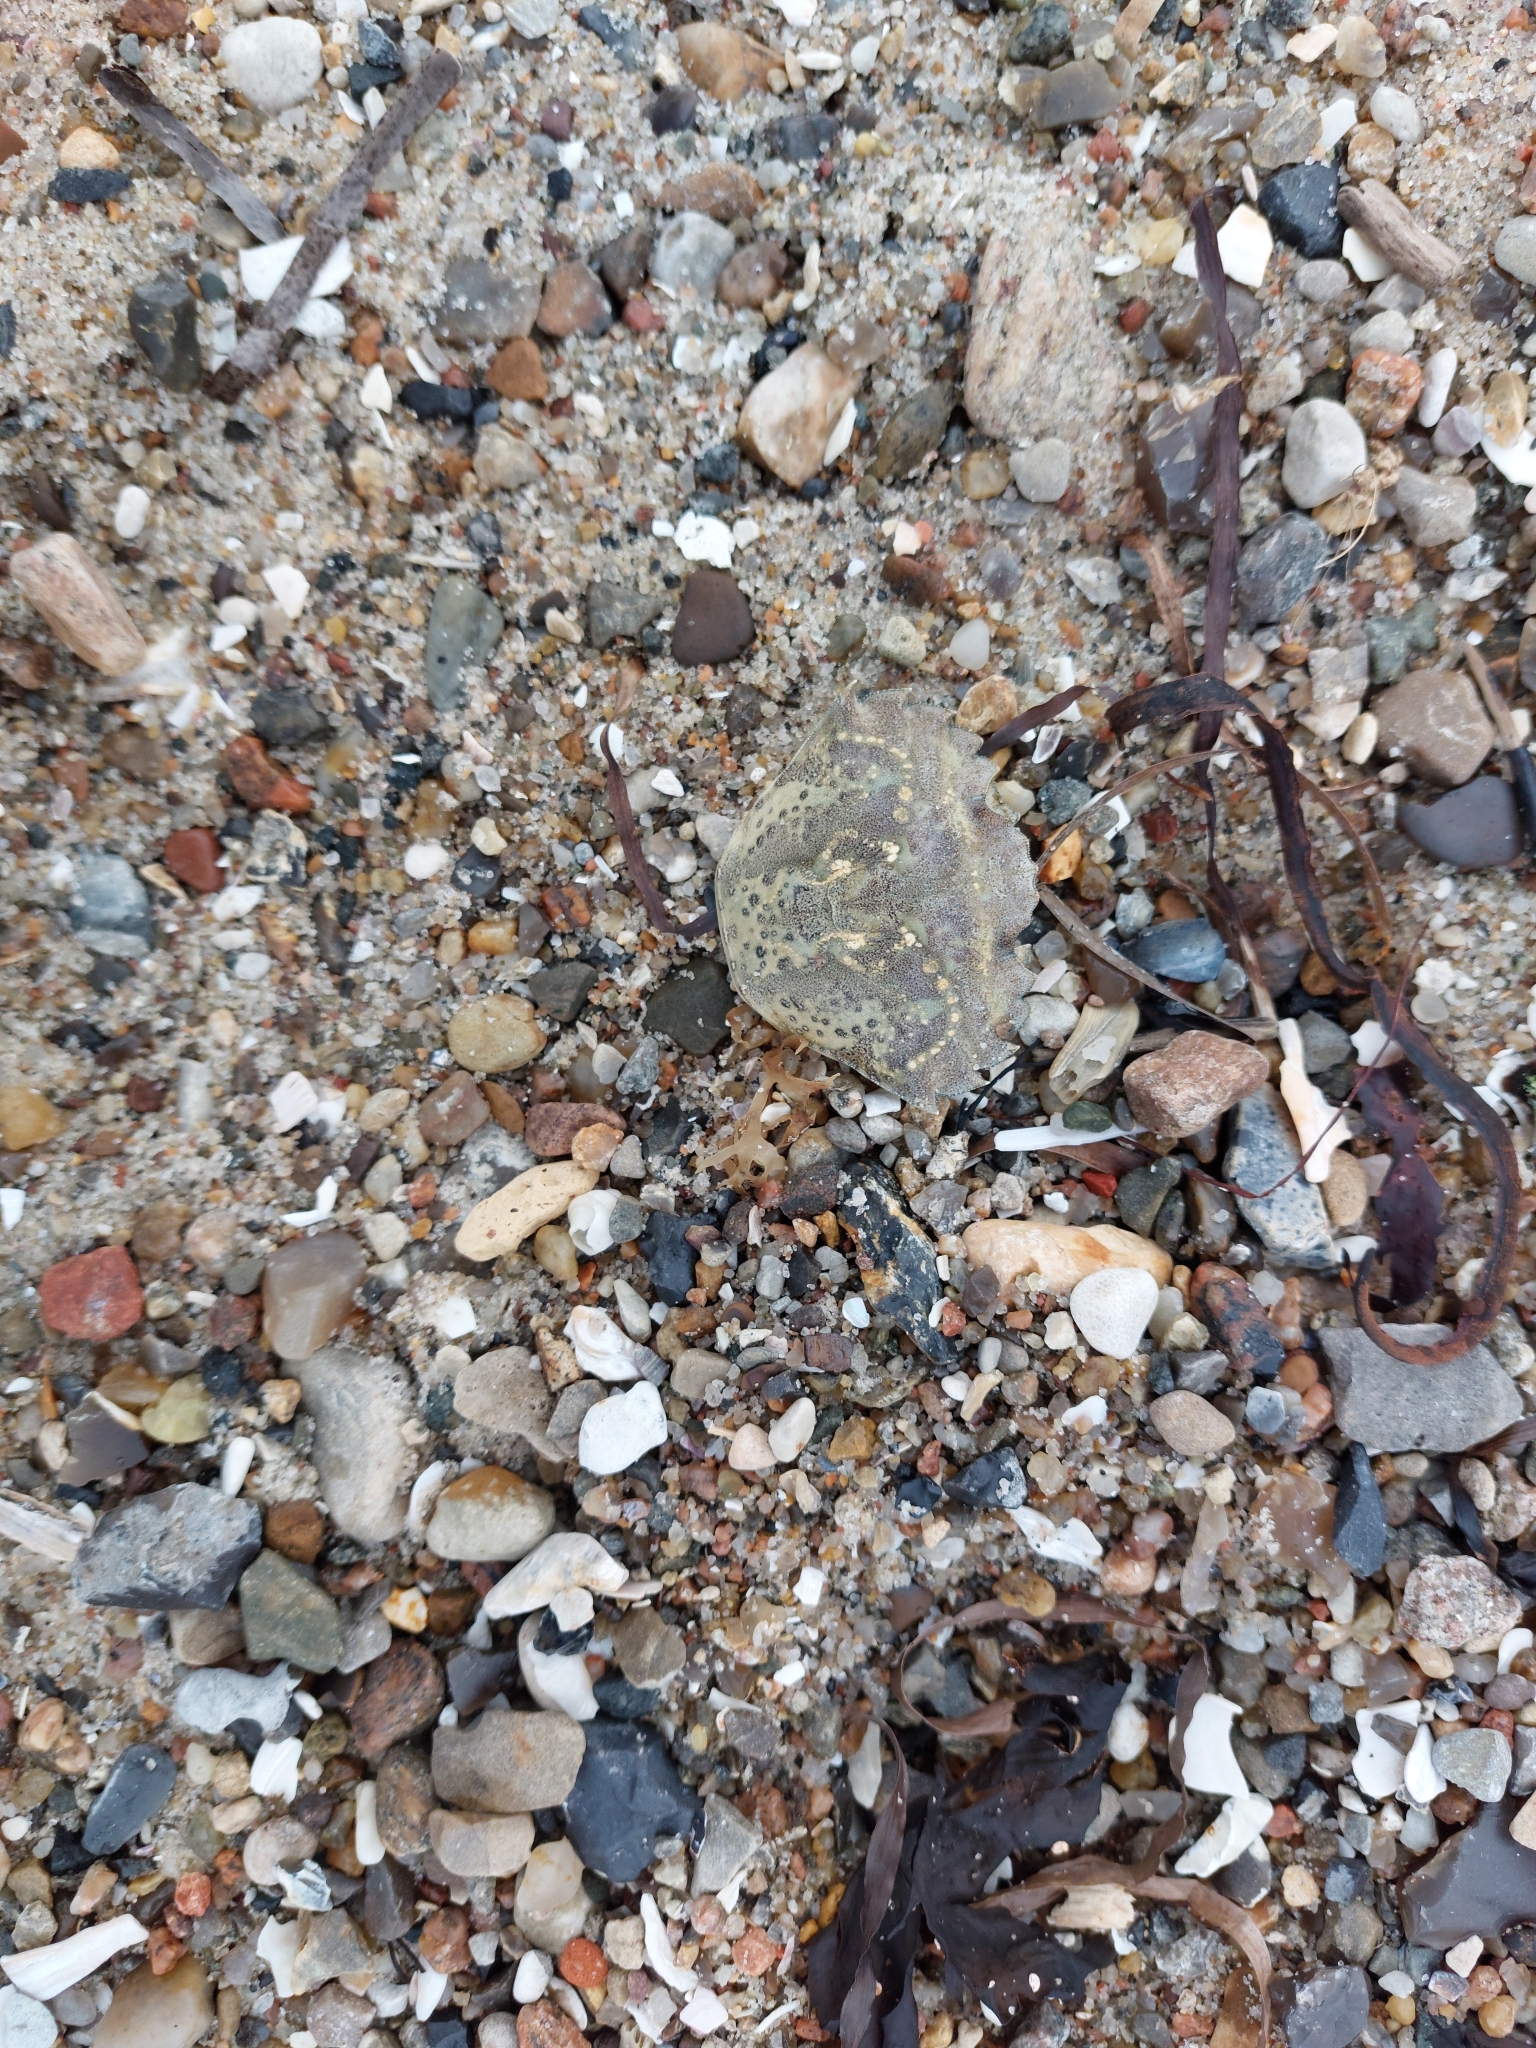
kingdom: Animalia
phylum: Arthropoda
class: Malacostraca
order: Decapoda
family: Carcinidae
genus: Carcinus
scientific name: Carcinus maenas
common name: European green crab
